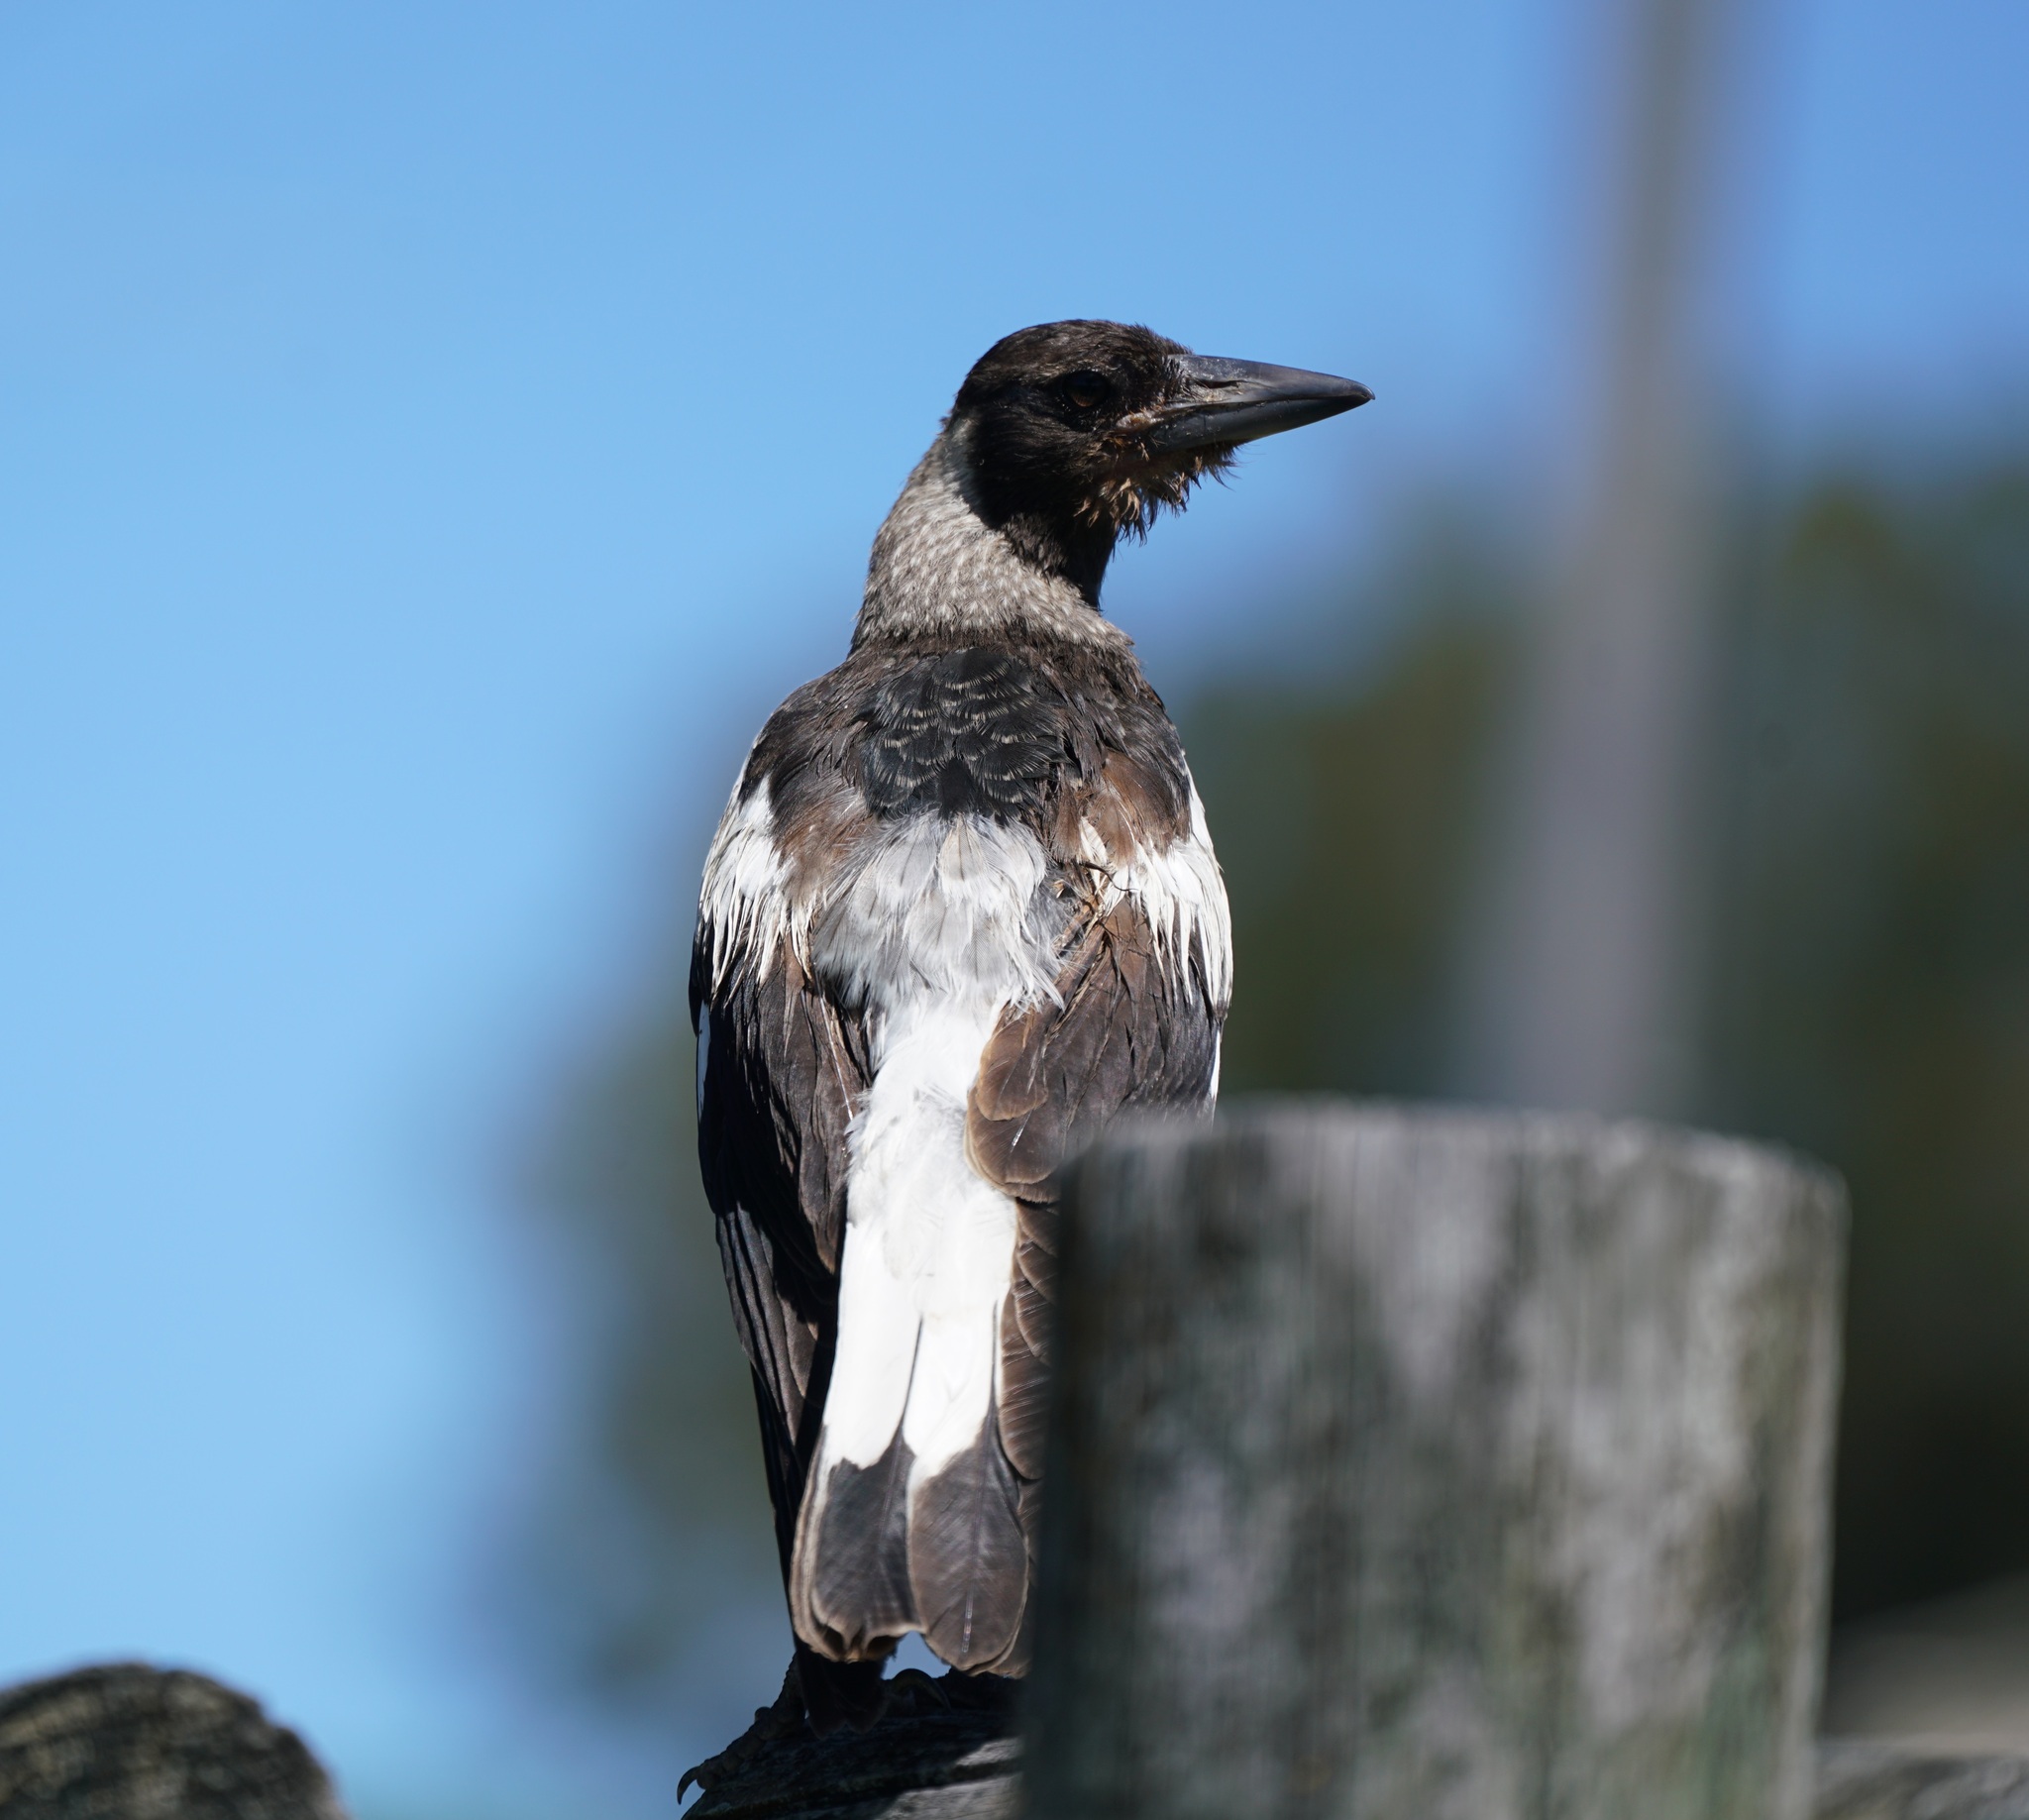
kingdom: Animalia
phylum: Chordata
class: Aves
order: Passeriformes
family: Cracticidae
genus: Gymnorhina
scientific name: Gymnorhina tibicen
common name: Australian magpie
